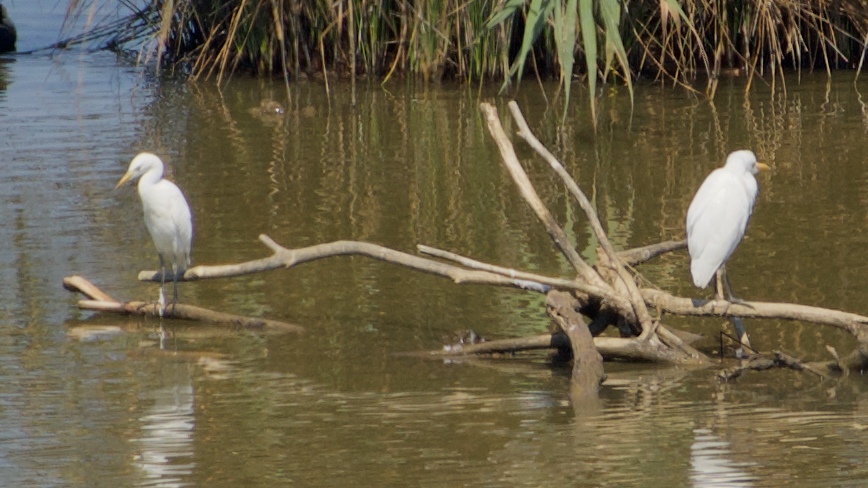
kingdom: Animalia
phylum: Chordata
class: Aves
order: Pelecaniformes
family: Ardeidae
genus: Bubulcus
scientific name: Bubulcus ibis
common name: Cattle egret
